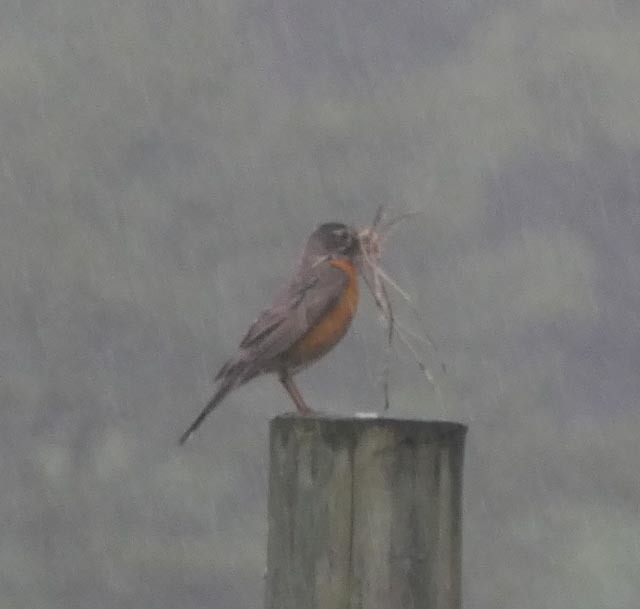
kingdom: Animalia
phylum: Chordata
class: Aves
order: Passeriformes
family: Turdidae
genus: Turdus
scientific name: Turdus migratorius
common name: American robin
